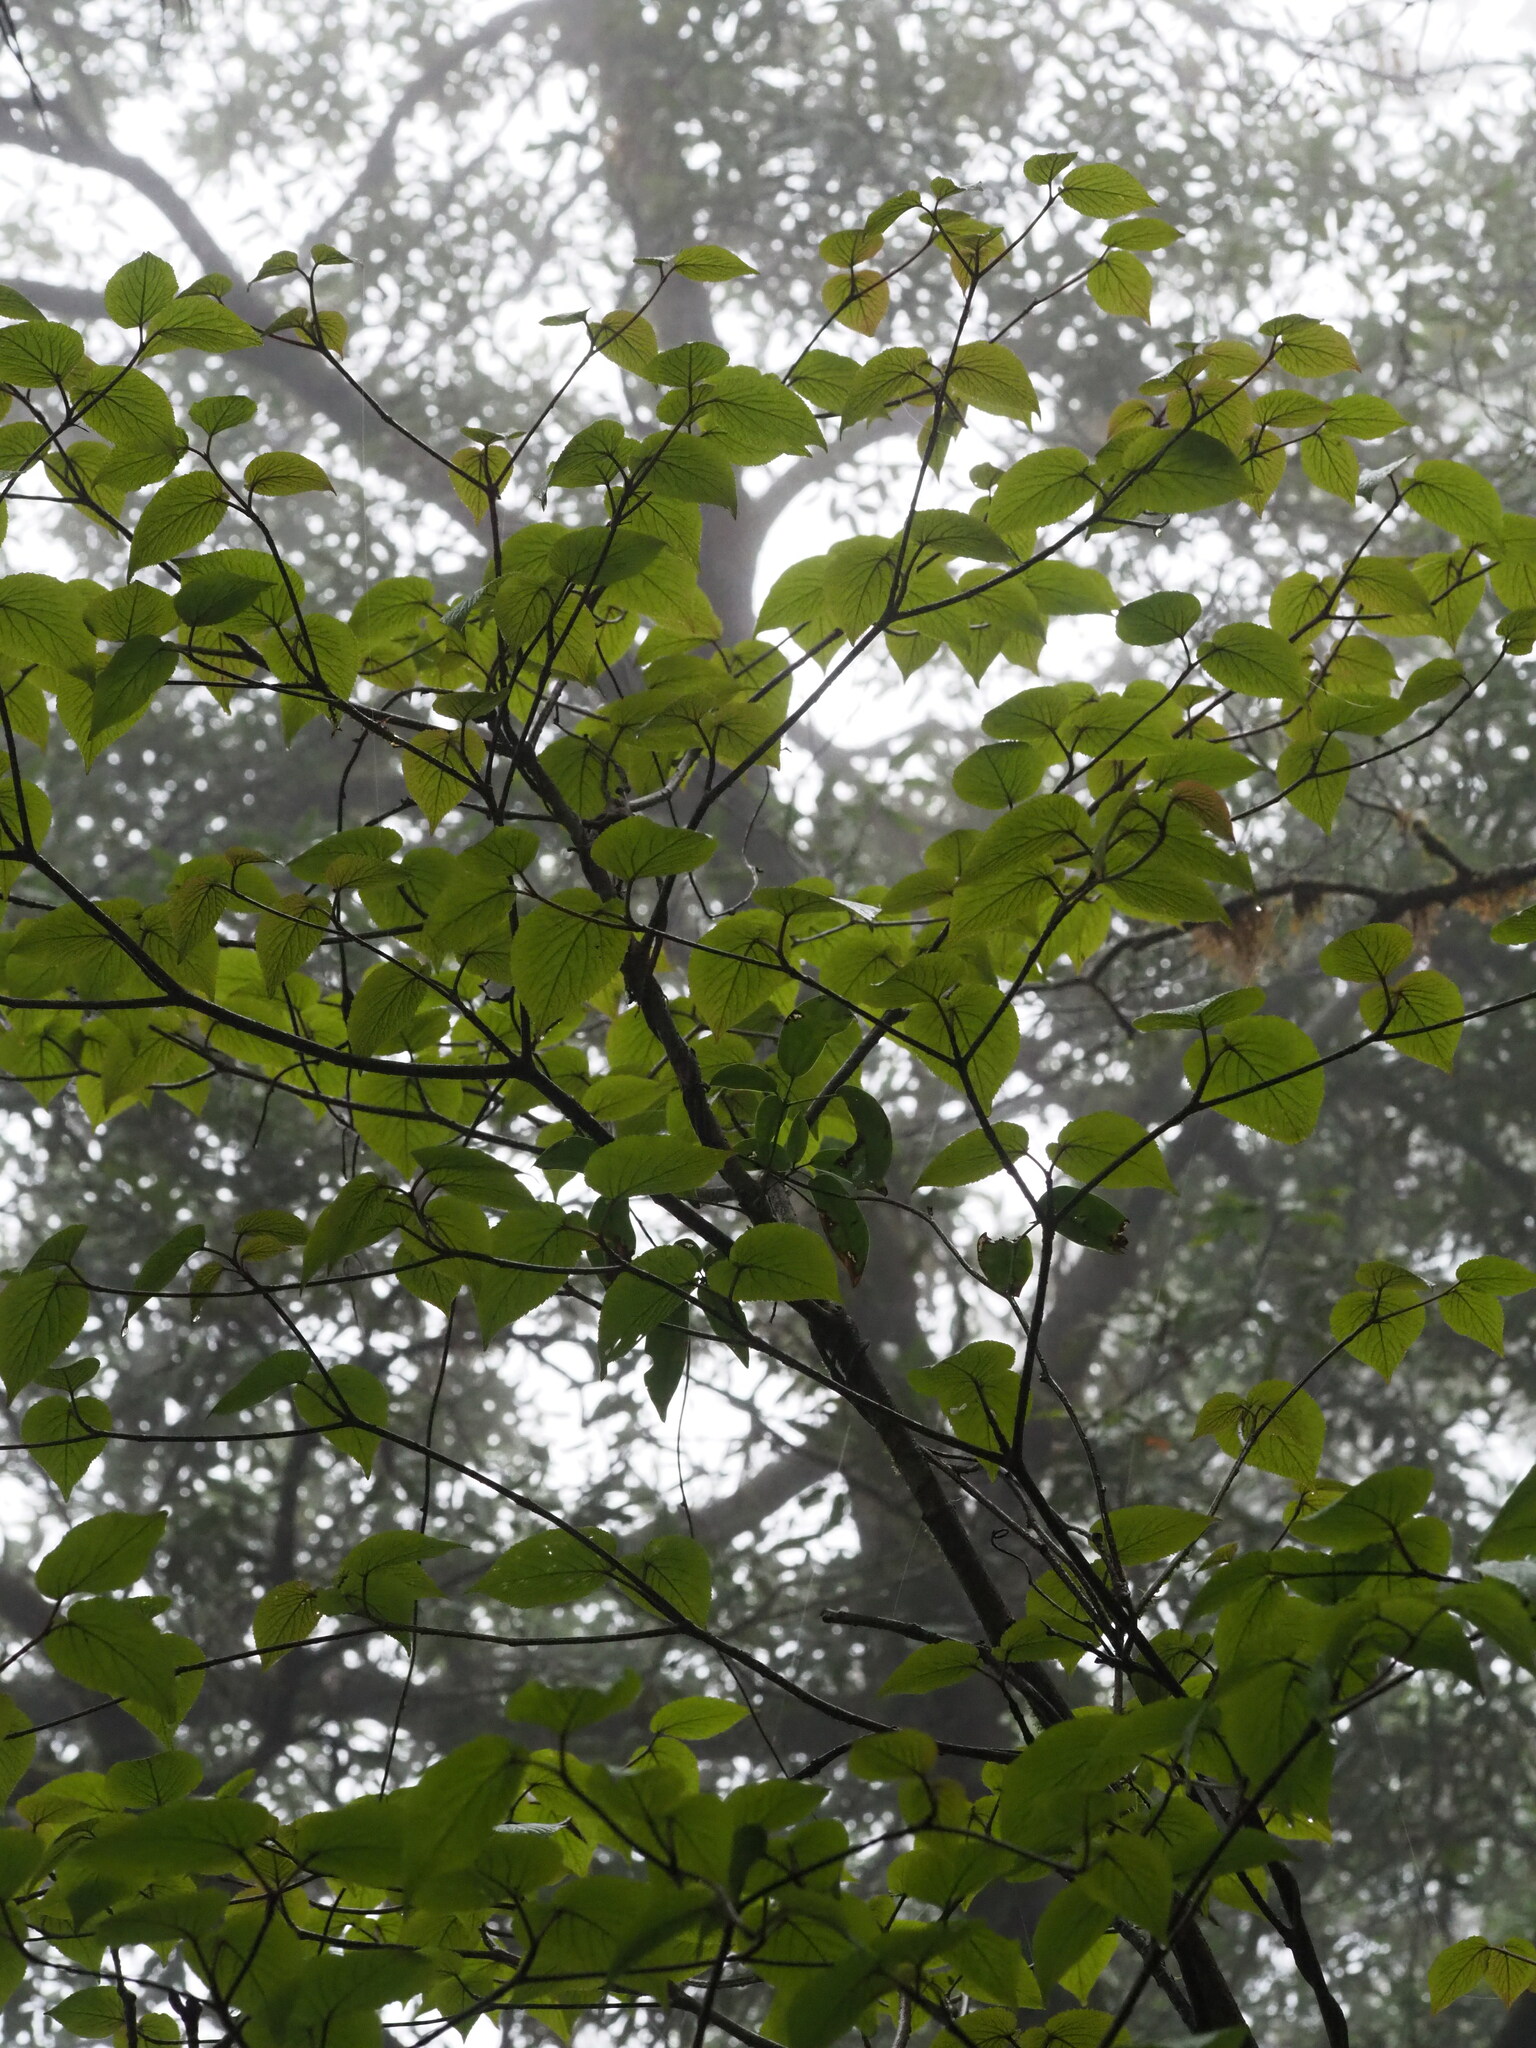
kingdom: Plantae
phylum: Tracheophyta
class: Magnoliopsida
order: Dipsacales
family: Viburnaceae
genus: Viburnum
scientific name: Viburnum furcatum
